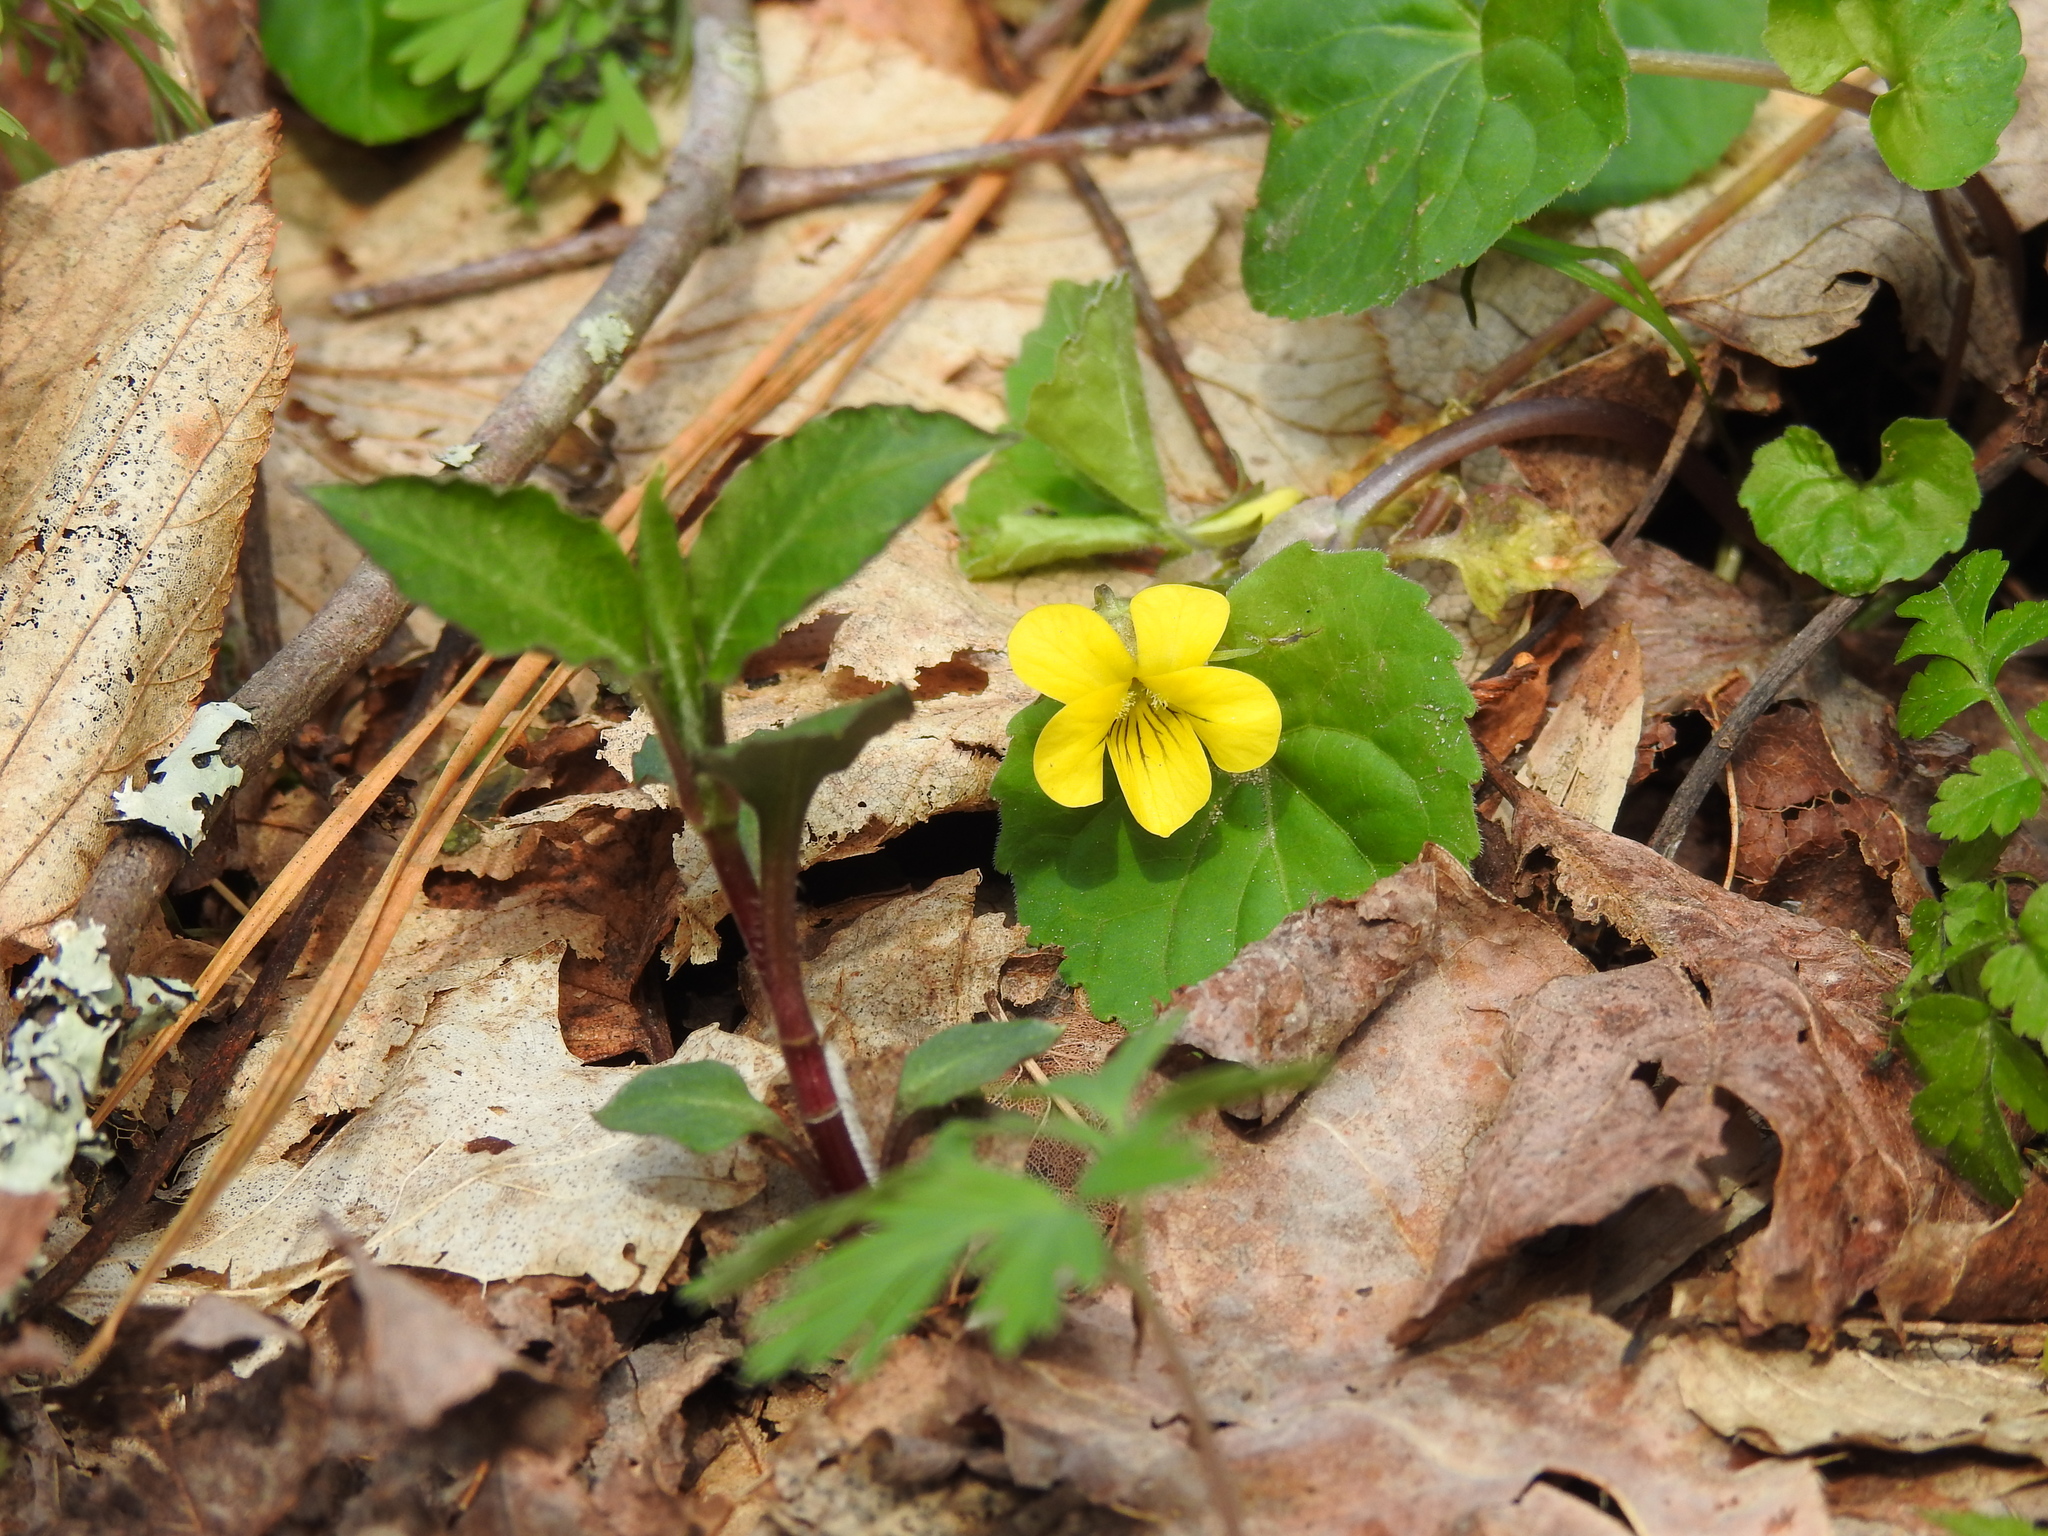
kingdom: Plantae
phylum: Tracheophyta
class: Magnoliopsida
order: Malpighiales
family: Violaceae
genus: Viola
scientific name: Viola eriocarpa
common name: Smooth yellow violet
